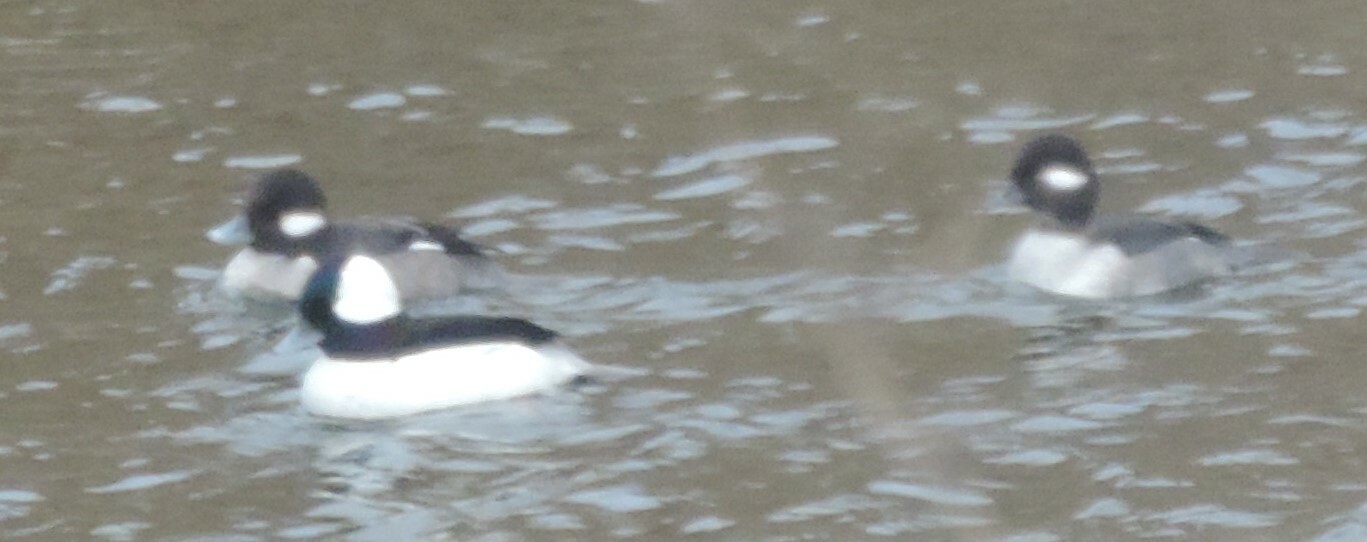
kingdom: Animalia
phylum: Chordata
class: Aves
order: Anseriformes
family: Anatidae
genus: Bucephala
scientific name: Bucephala albeola
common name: Bufflehead
